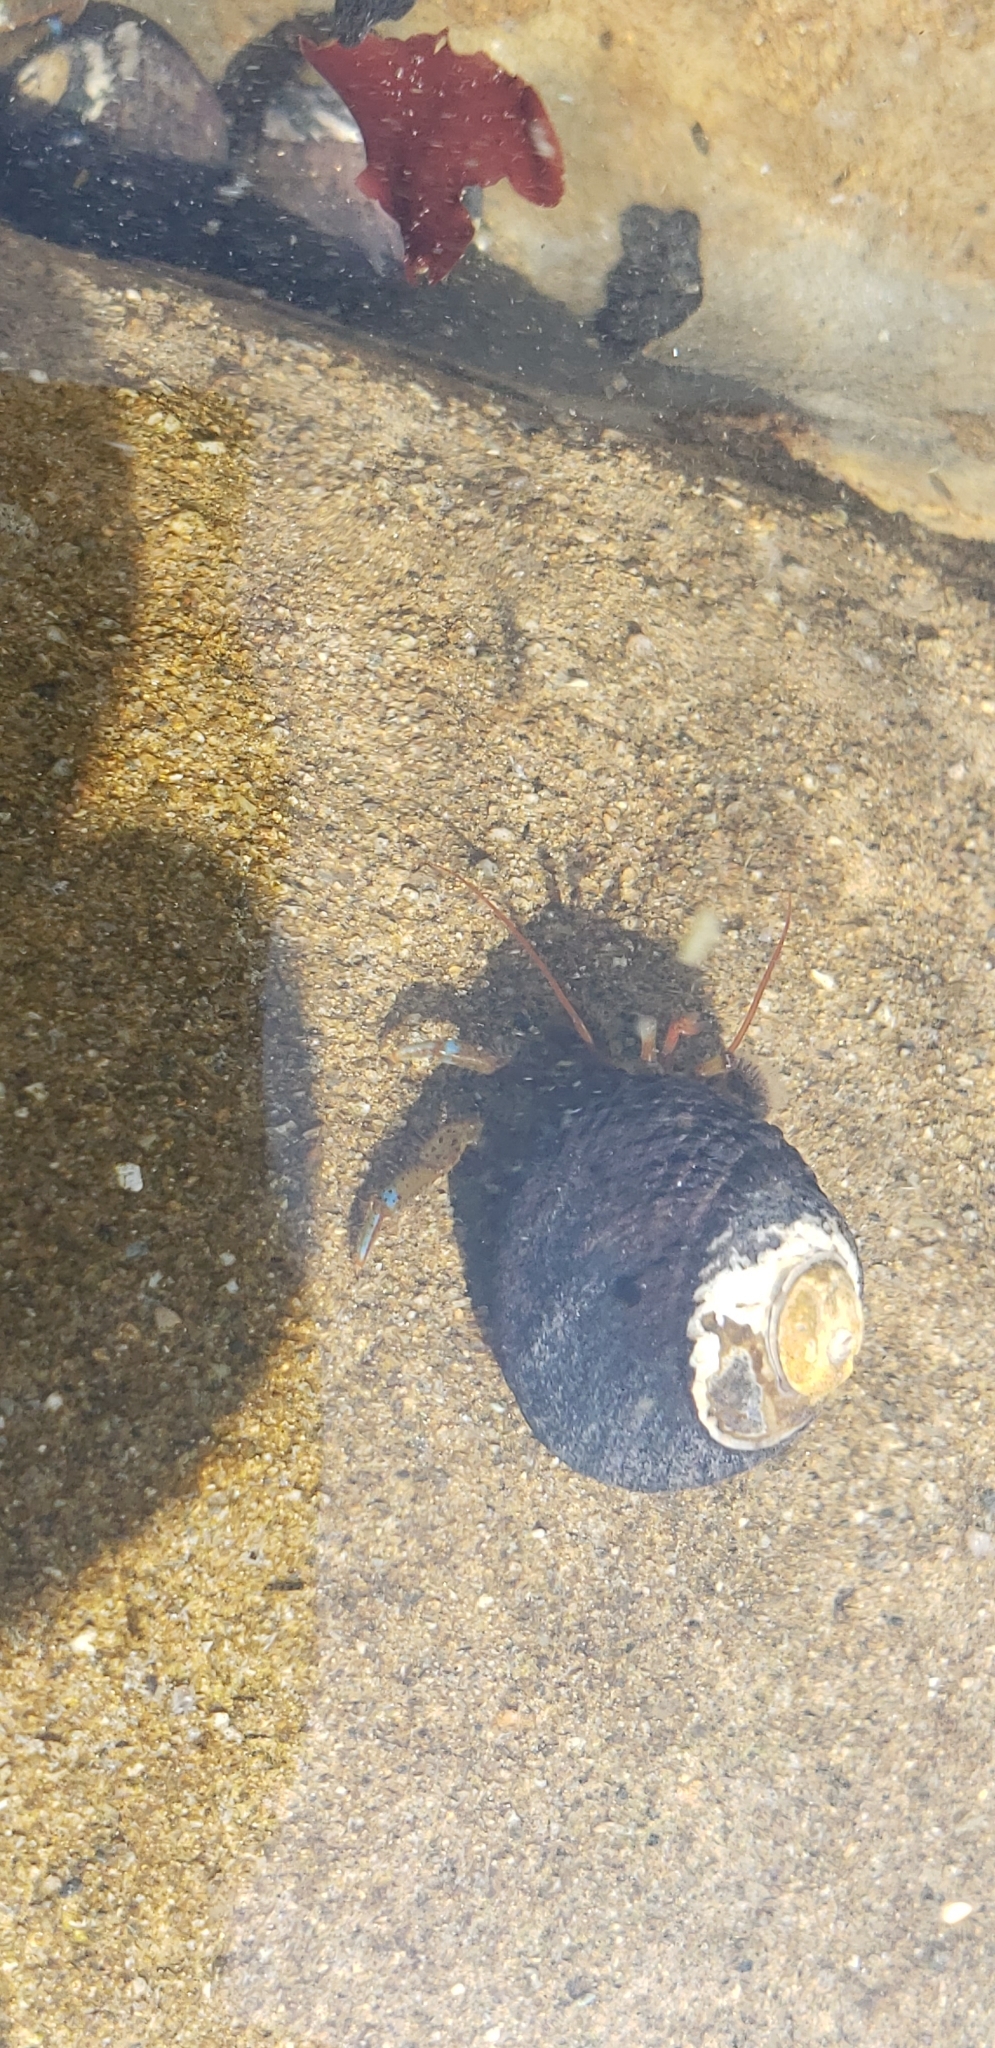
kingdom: Animalia
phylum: Arthropoda
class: Malacostraca
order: Decapoda
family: Paguridae
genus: Pagurus
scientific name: Pagurus samuelis
